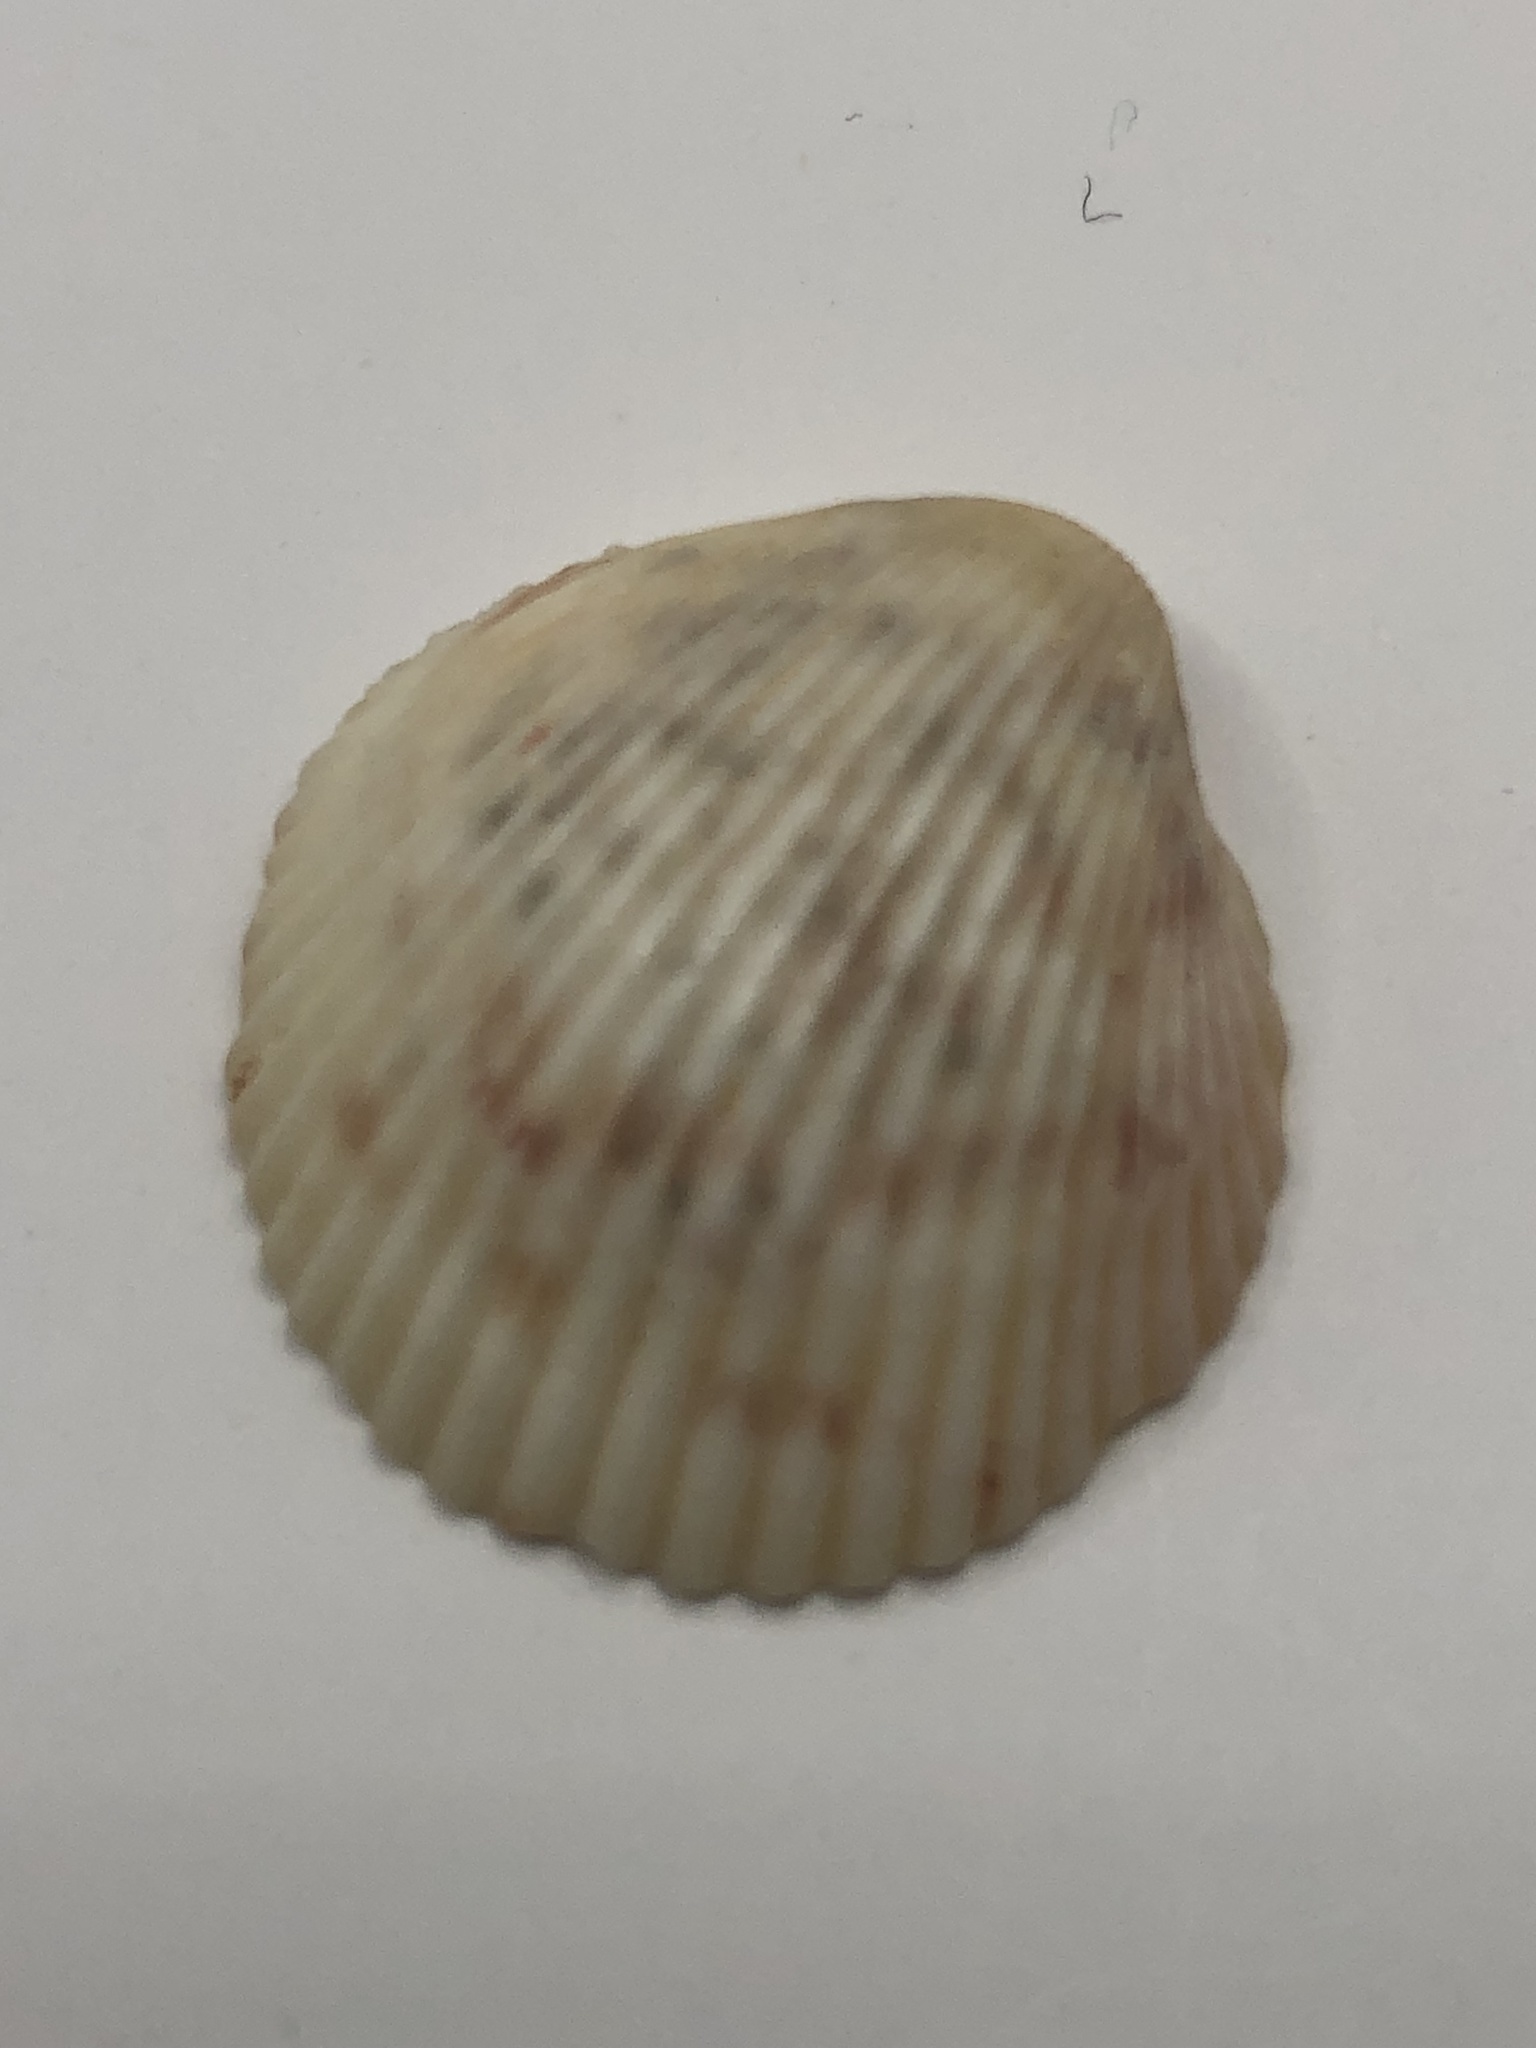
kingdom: Animalia
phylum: Mollusca
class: Bivalvia
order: Cardiida
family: Cardiidae
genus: Dallocardia
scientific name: Dallocardia muricata
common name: Yellow pricklycockle
